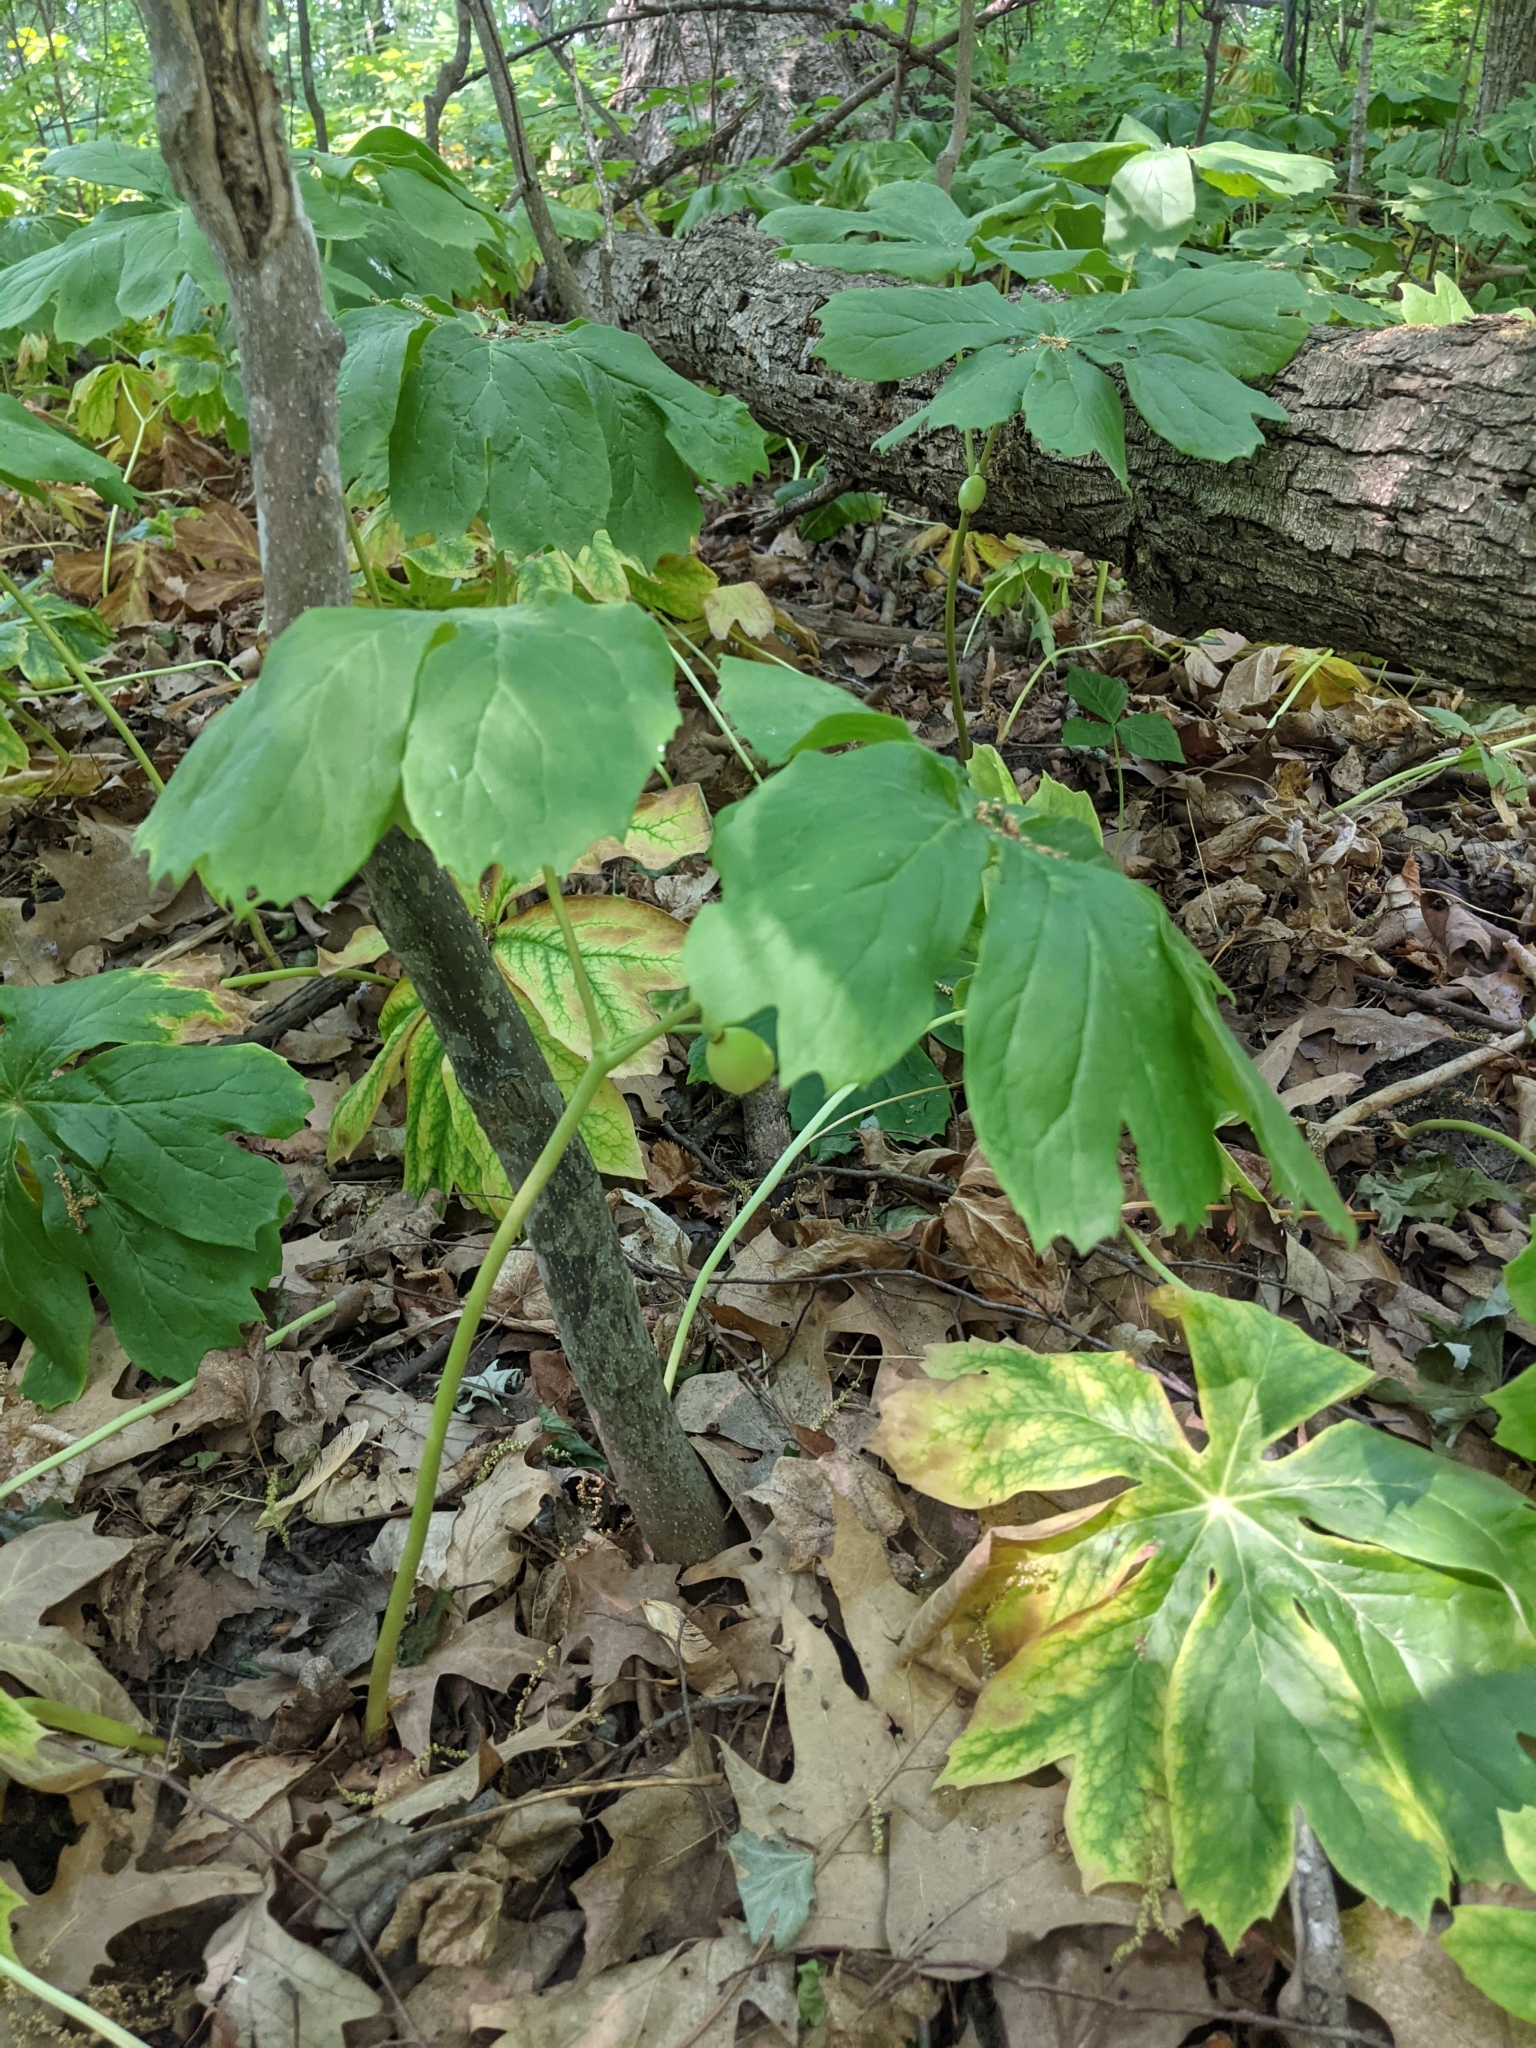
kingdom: Plantae
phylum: Tracheophyta
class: Magnoliopsida
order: Ranunculales
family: Berberidaceae
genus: Podophyllum
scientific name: Podophyllum peltatum
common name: Wild mandrake
